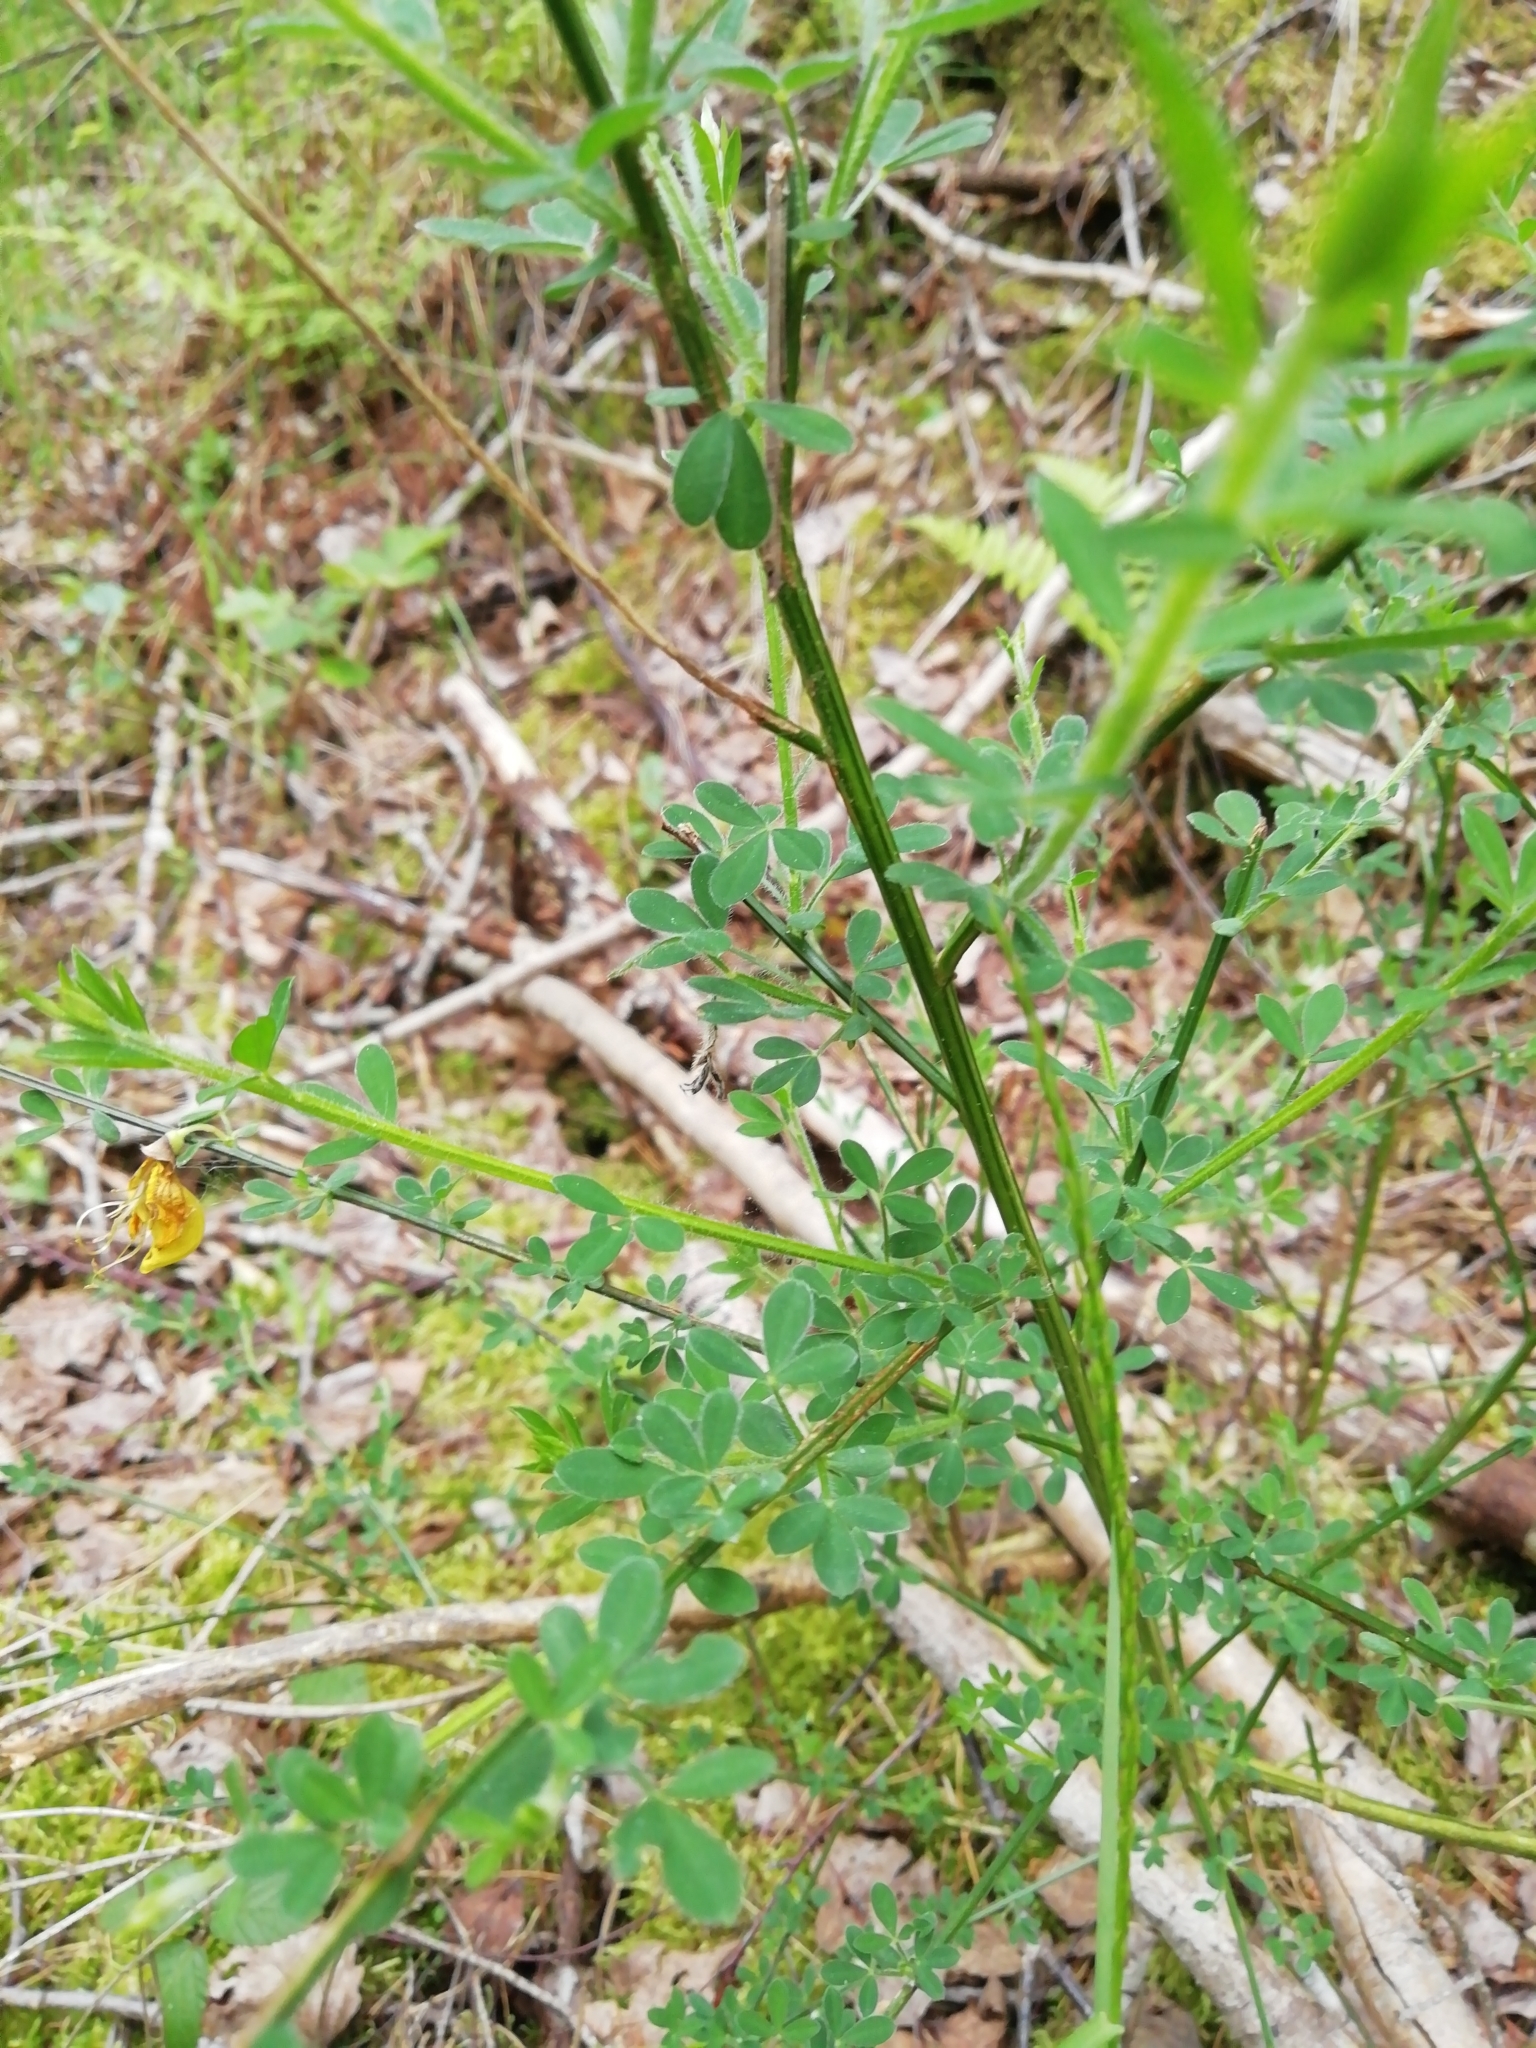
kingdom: Plantae
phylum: Tracheophyta
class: Magnoliopsida
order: Fabales
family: Fabaceae
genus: Cytisus
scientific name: Cytisus scoparius
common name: Scotch broom
